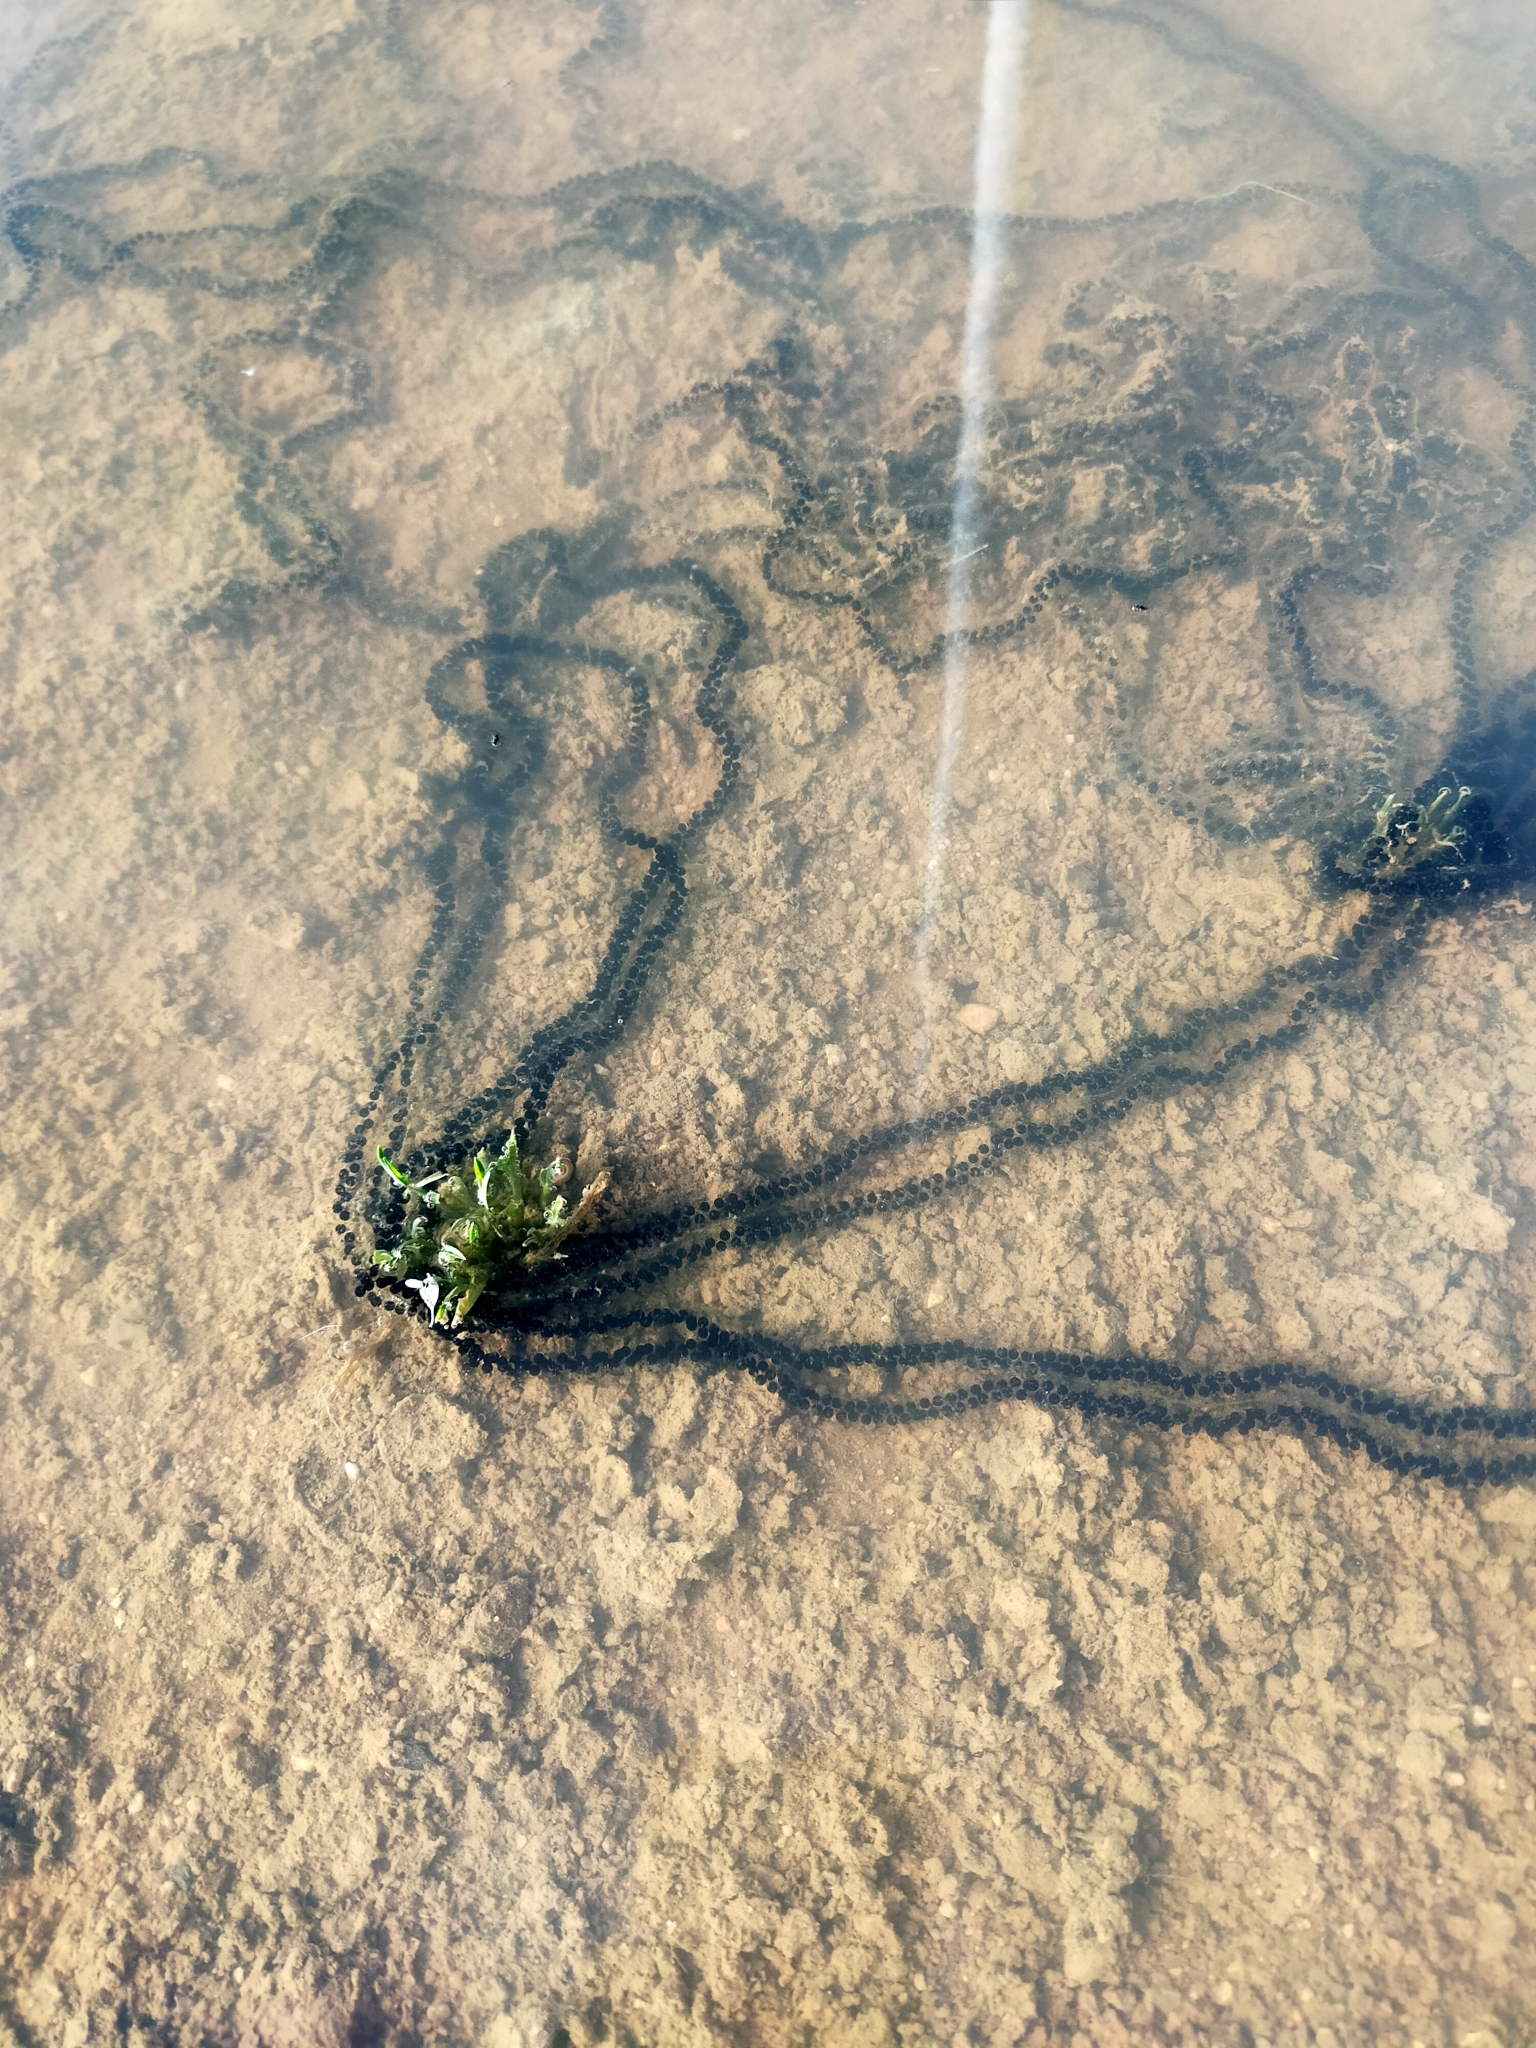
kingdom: Animalia
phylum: Chordata
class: Amphibia
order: Anura
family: Bufonidae
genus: Epidalea
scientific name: Epidalea calamita
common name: Natterjack toad
